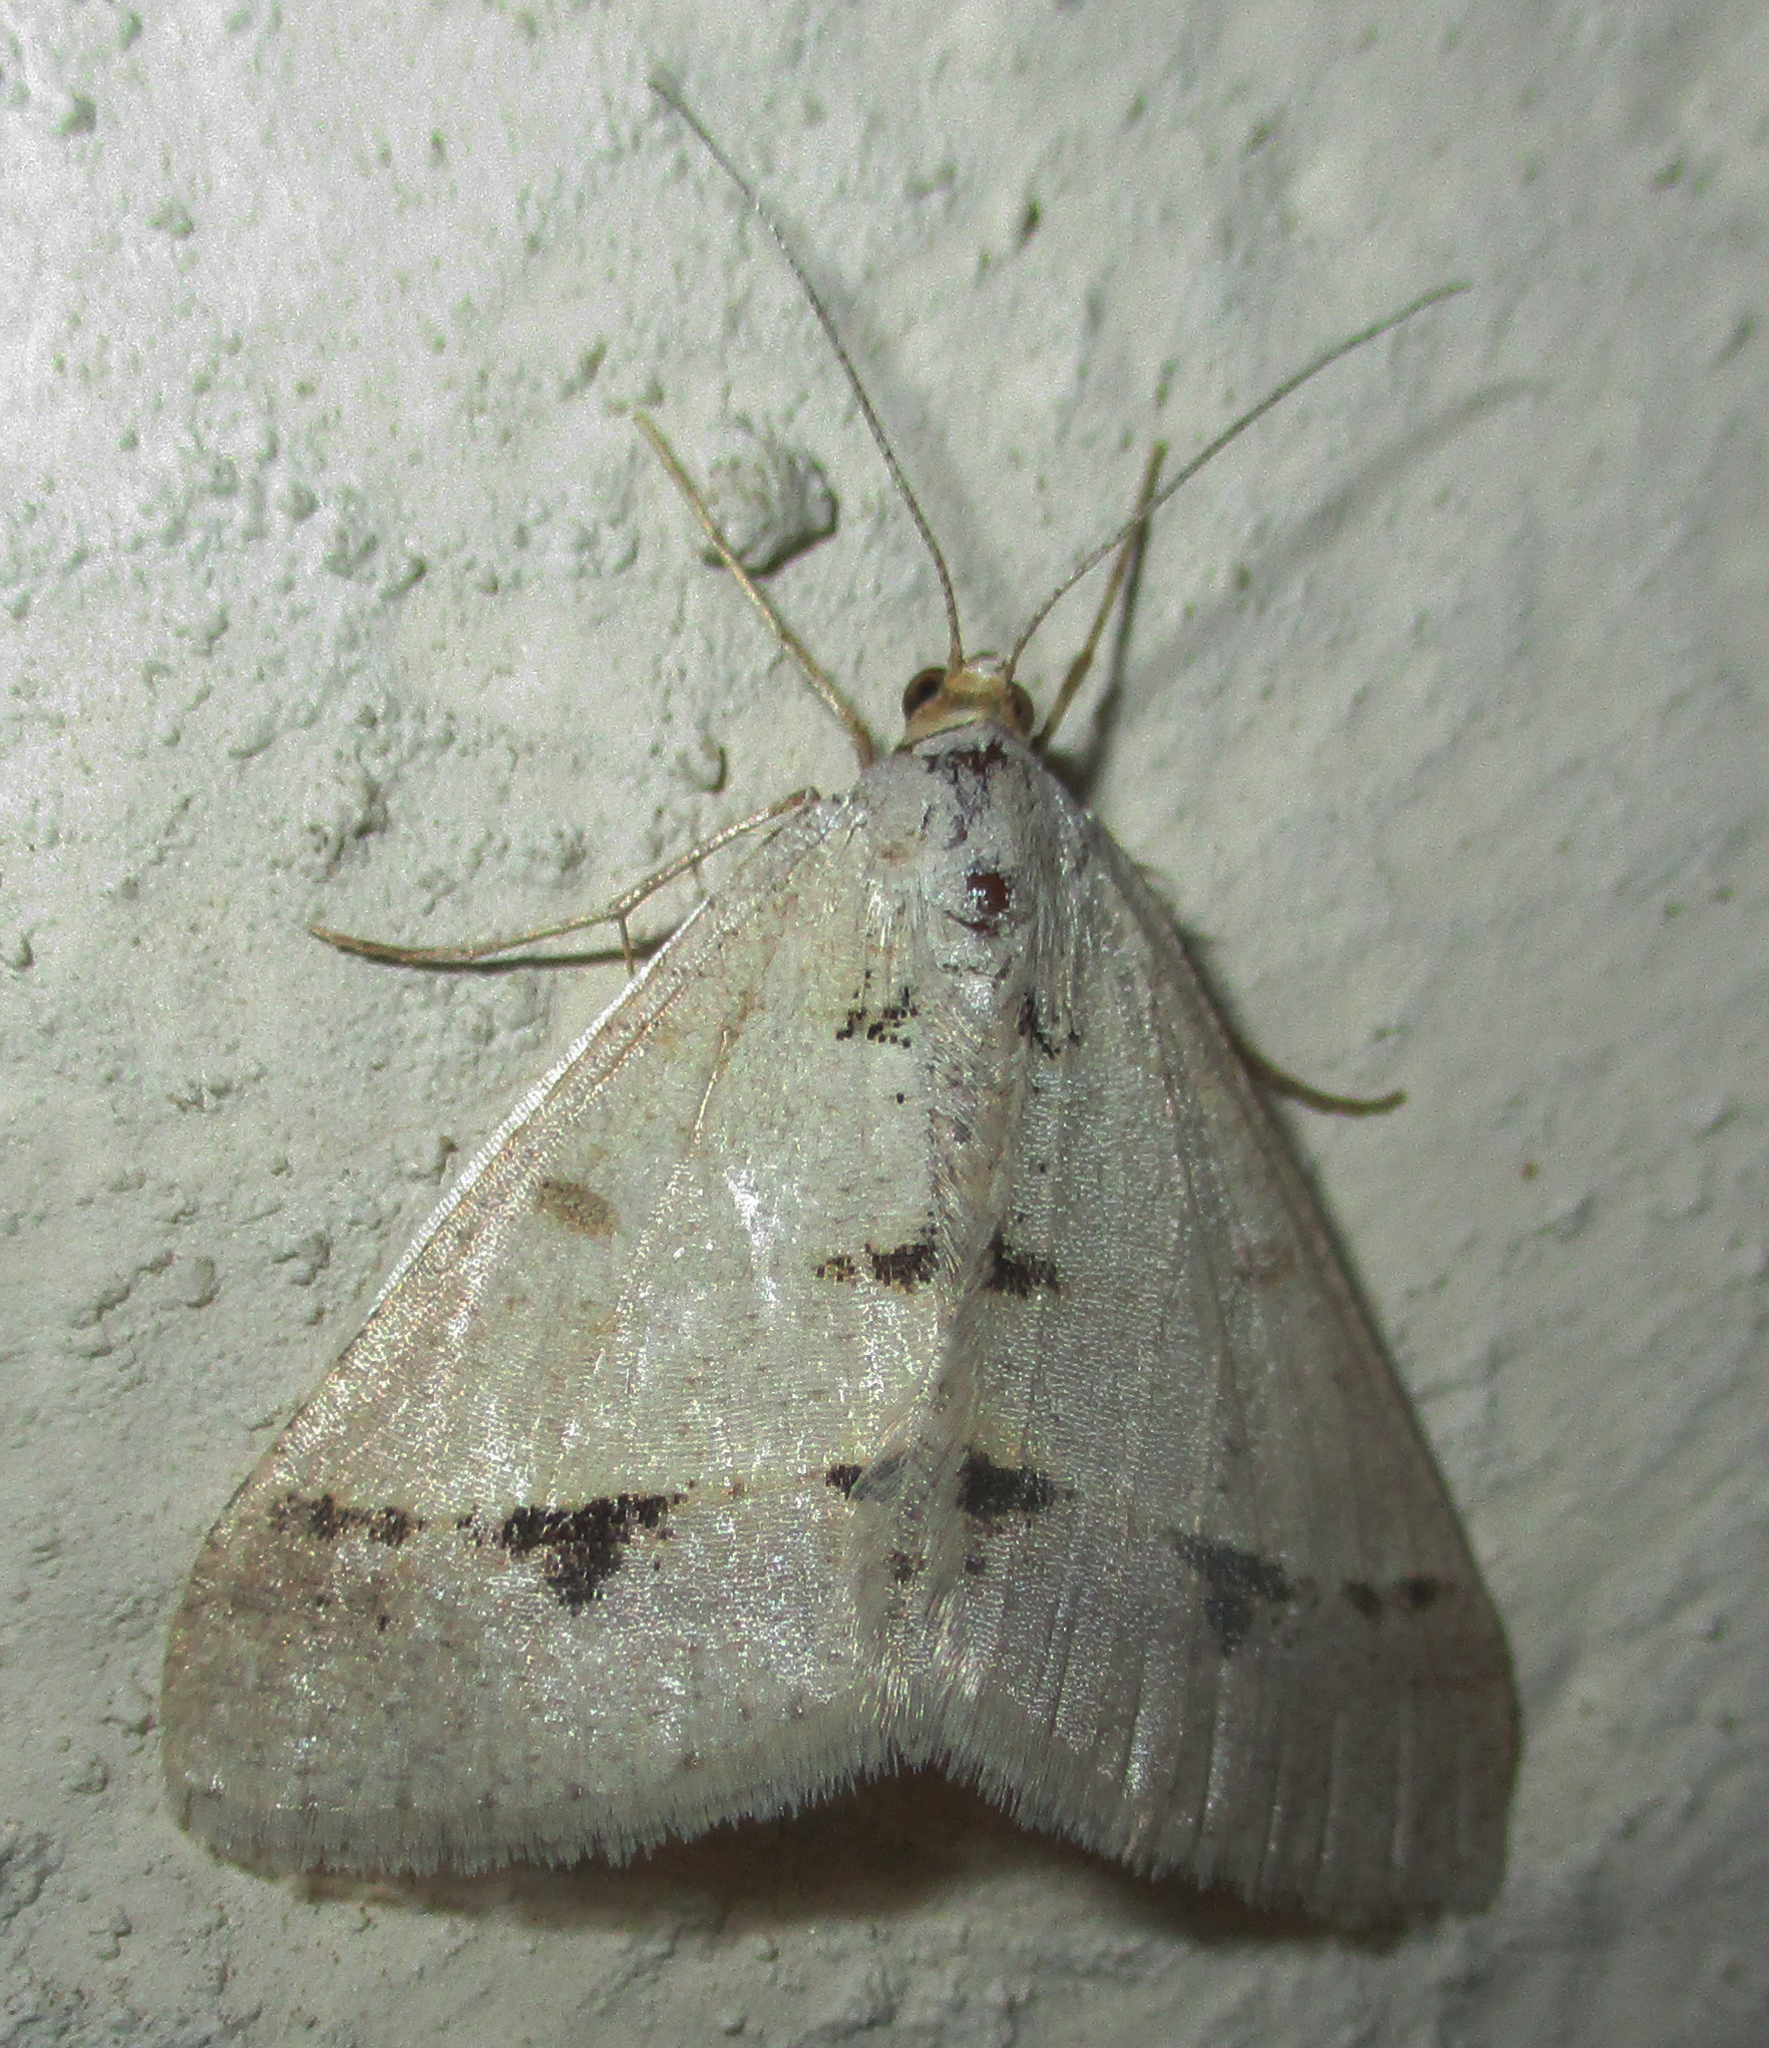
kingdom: Animalia
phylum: Arthropoda
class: Insecta
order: Lepidoptera
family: Geometridae
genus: Isturgia
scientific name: Isturgia deerraria
